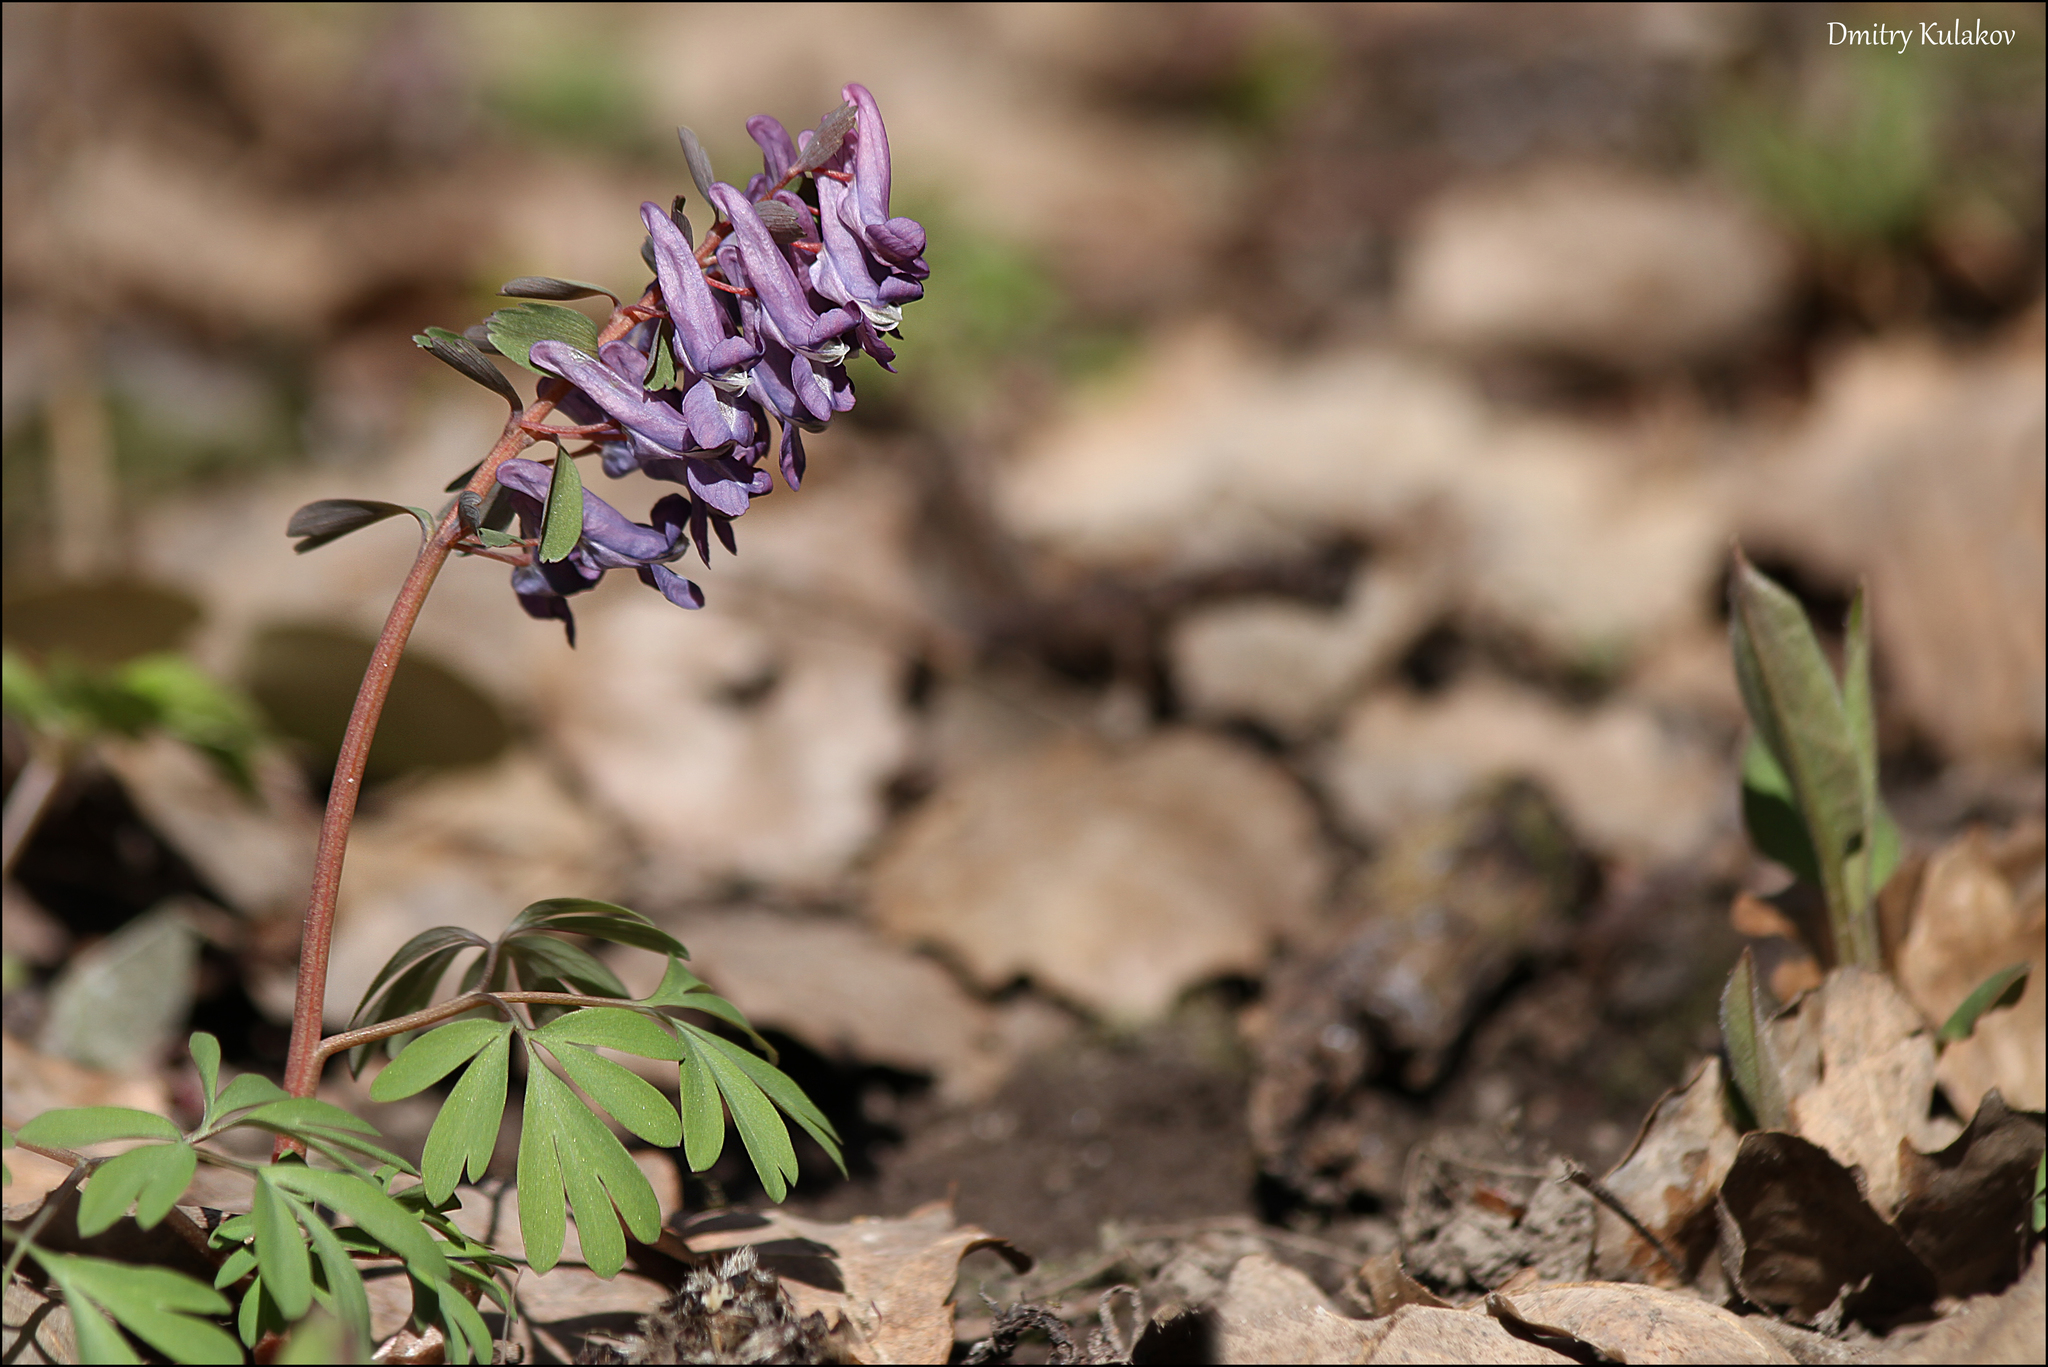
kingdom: Plantae
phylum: Tracheophyta
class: Magnoliopsida
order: Ranunculales
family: Papaveraceae
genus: Corydalis
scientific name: Corydalis solida
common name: Bird-in-a-bush
